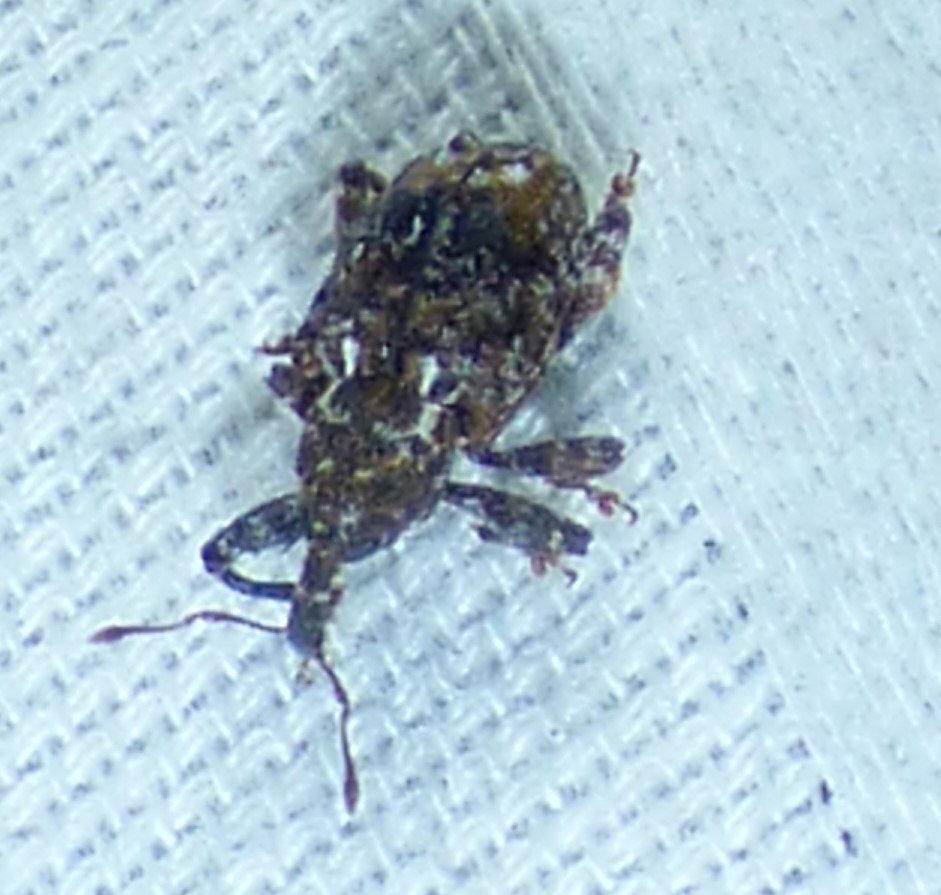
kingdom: Animalia
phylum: Arthropoda
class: Insecta
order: Coleoptera
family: Curculionidae
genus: Conotrachelus
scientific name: Conotrachelus nenuphar
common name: Plum curculio
